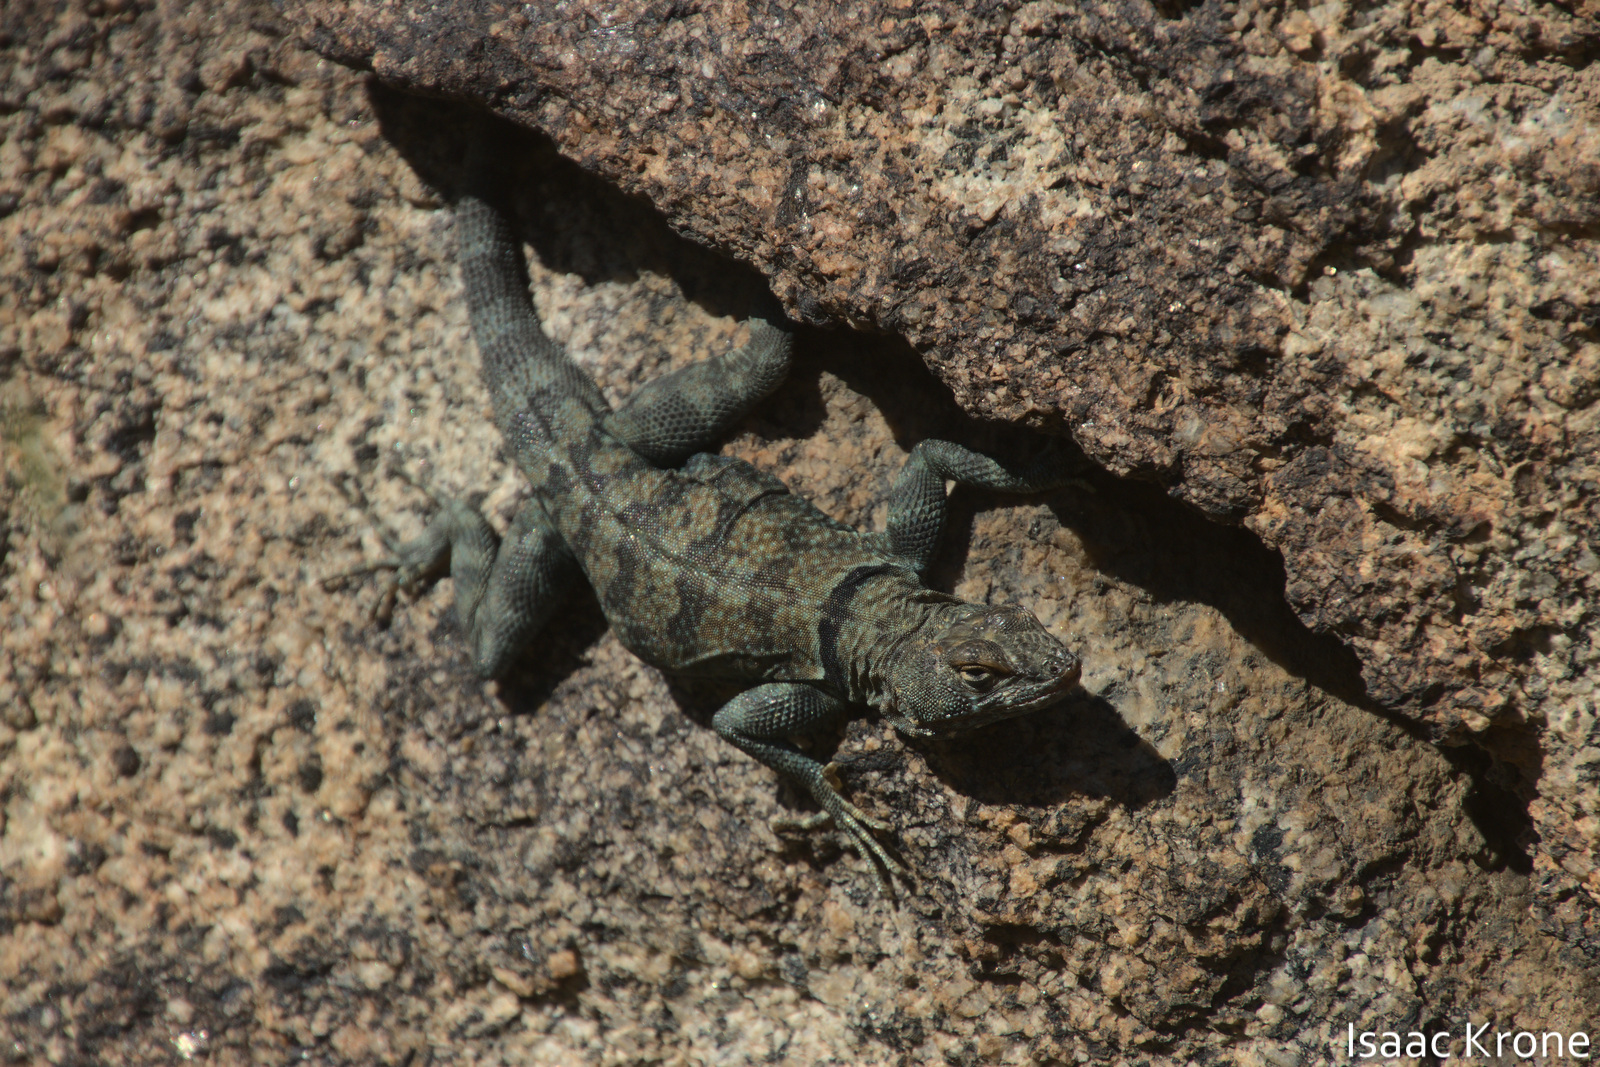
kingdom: Animalia
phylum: Chordata
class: Squamata
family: Phrynosomatidae
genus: Petrosaurus
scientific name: Petrosaurus mearnsi
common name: Banded rock lizard
